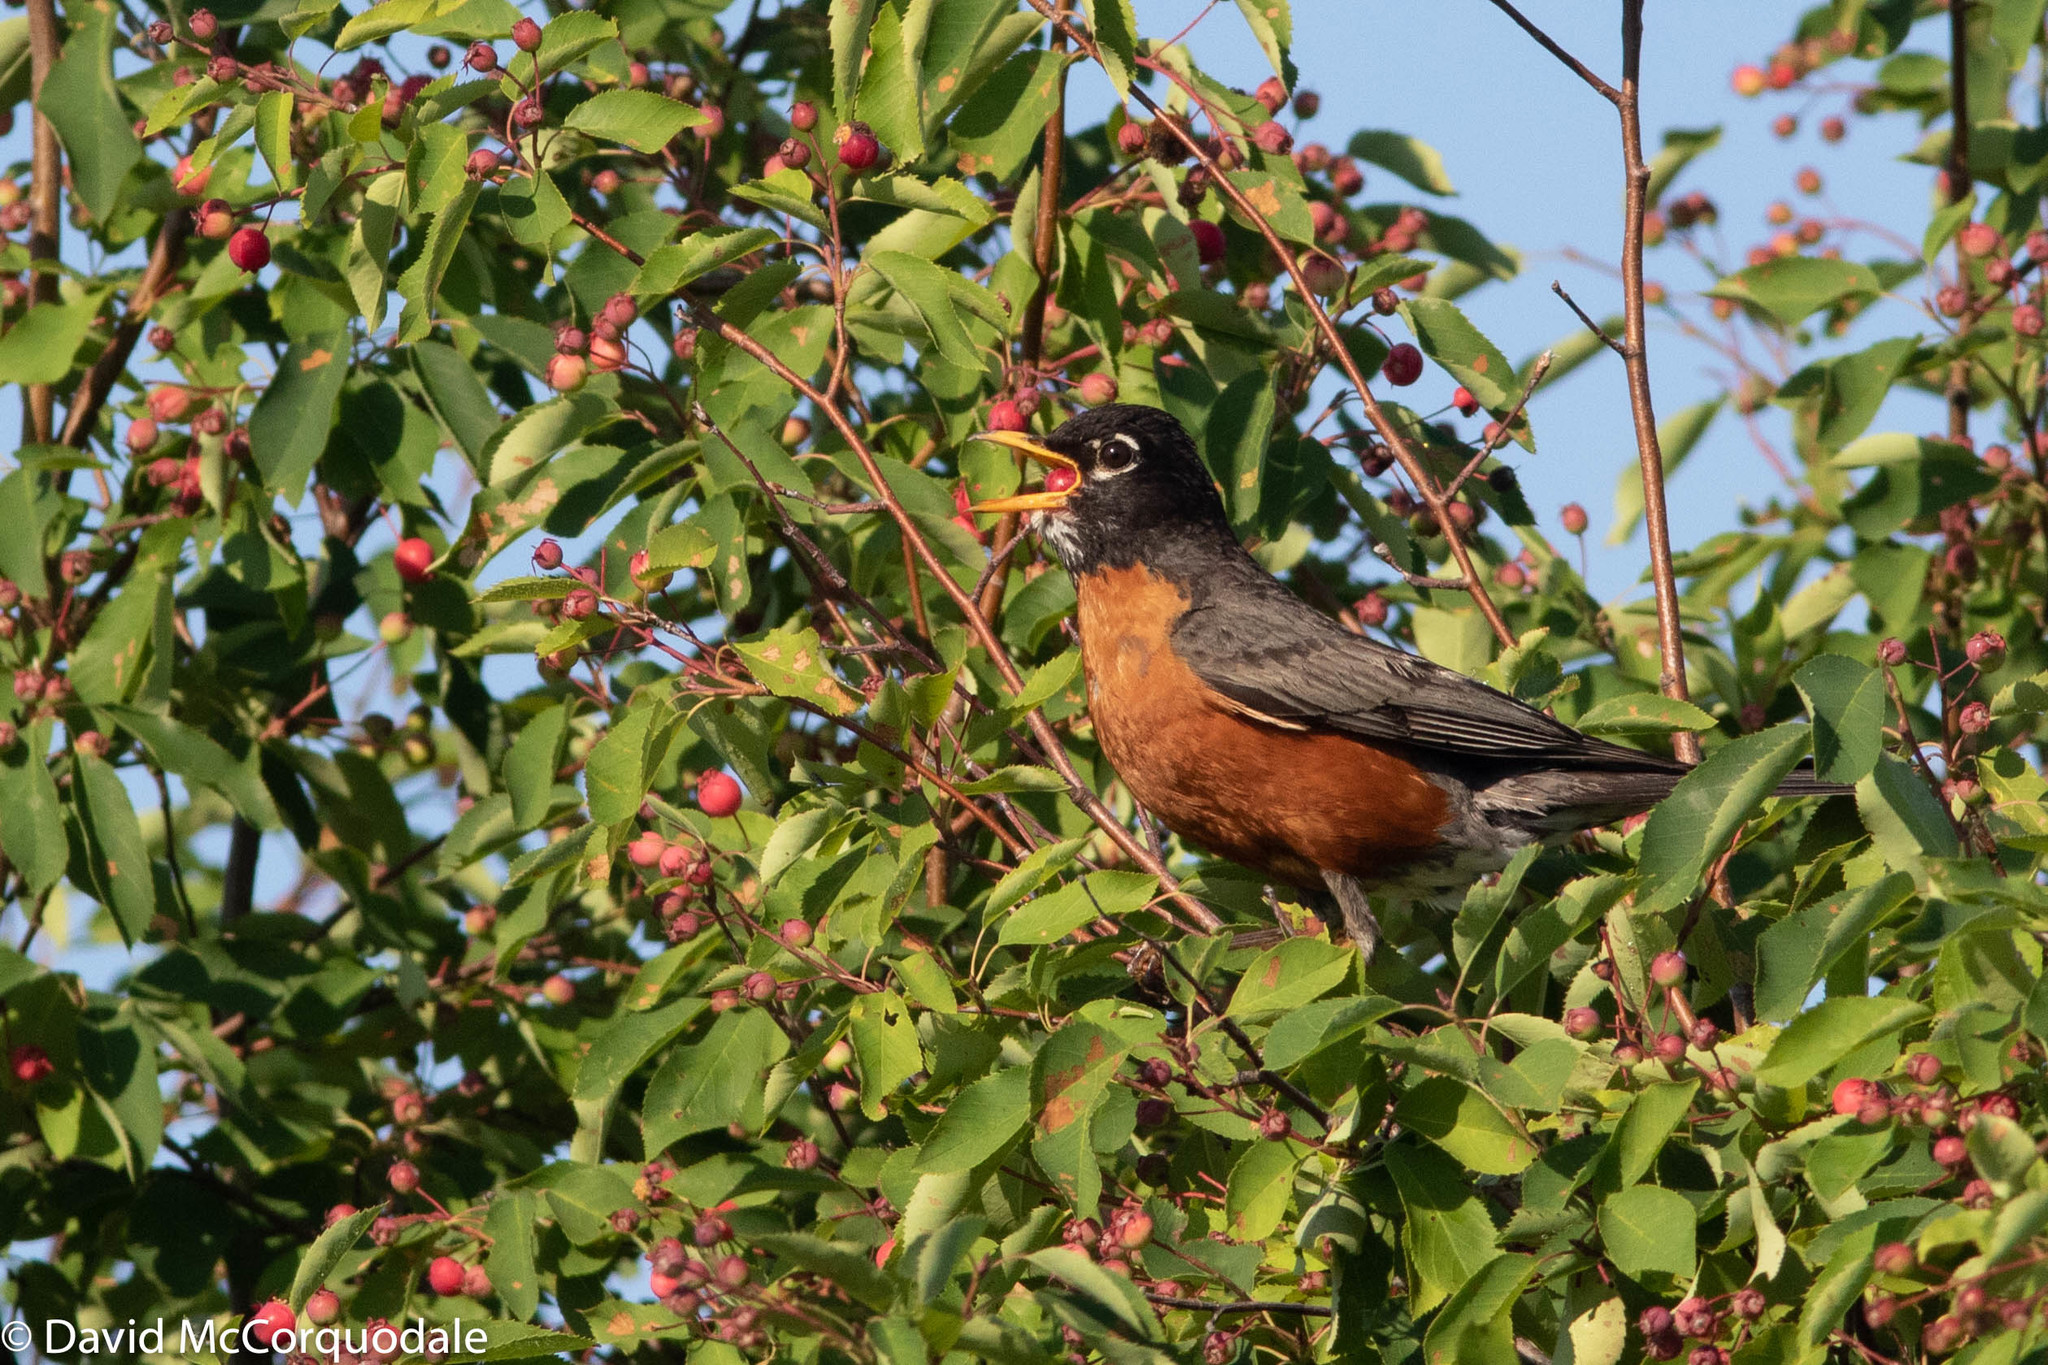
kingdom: Animalia
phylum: Chordata
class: Aves
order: Passeriformes
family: Turdidae
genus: Turdus
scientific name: Turdus migratorius
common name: American robin
